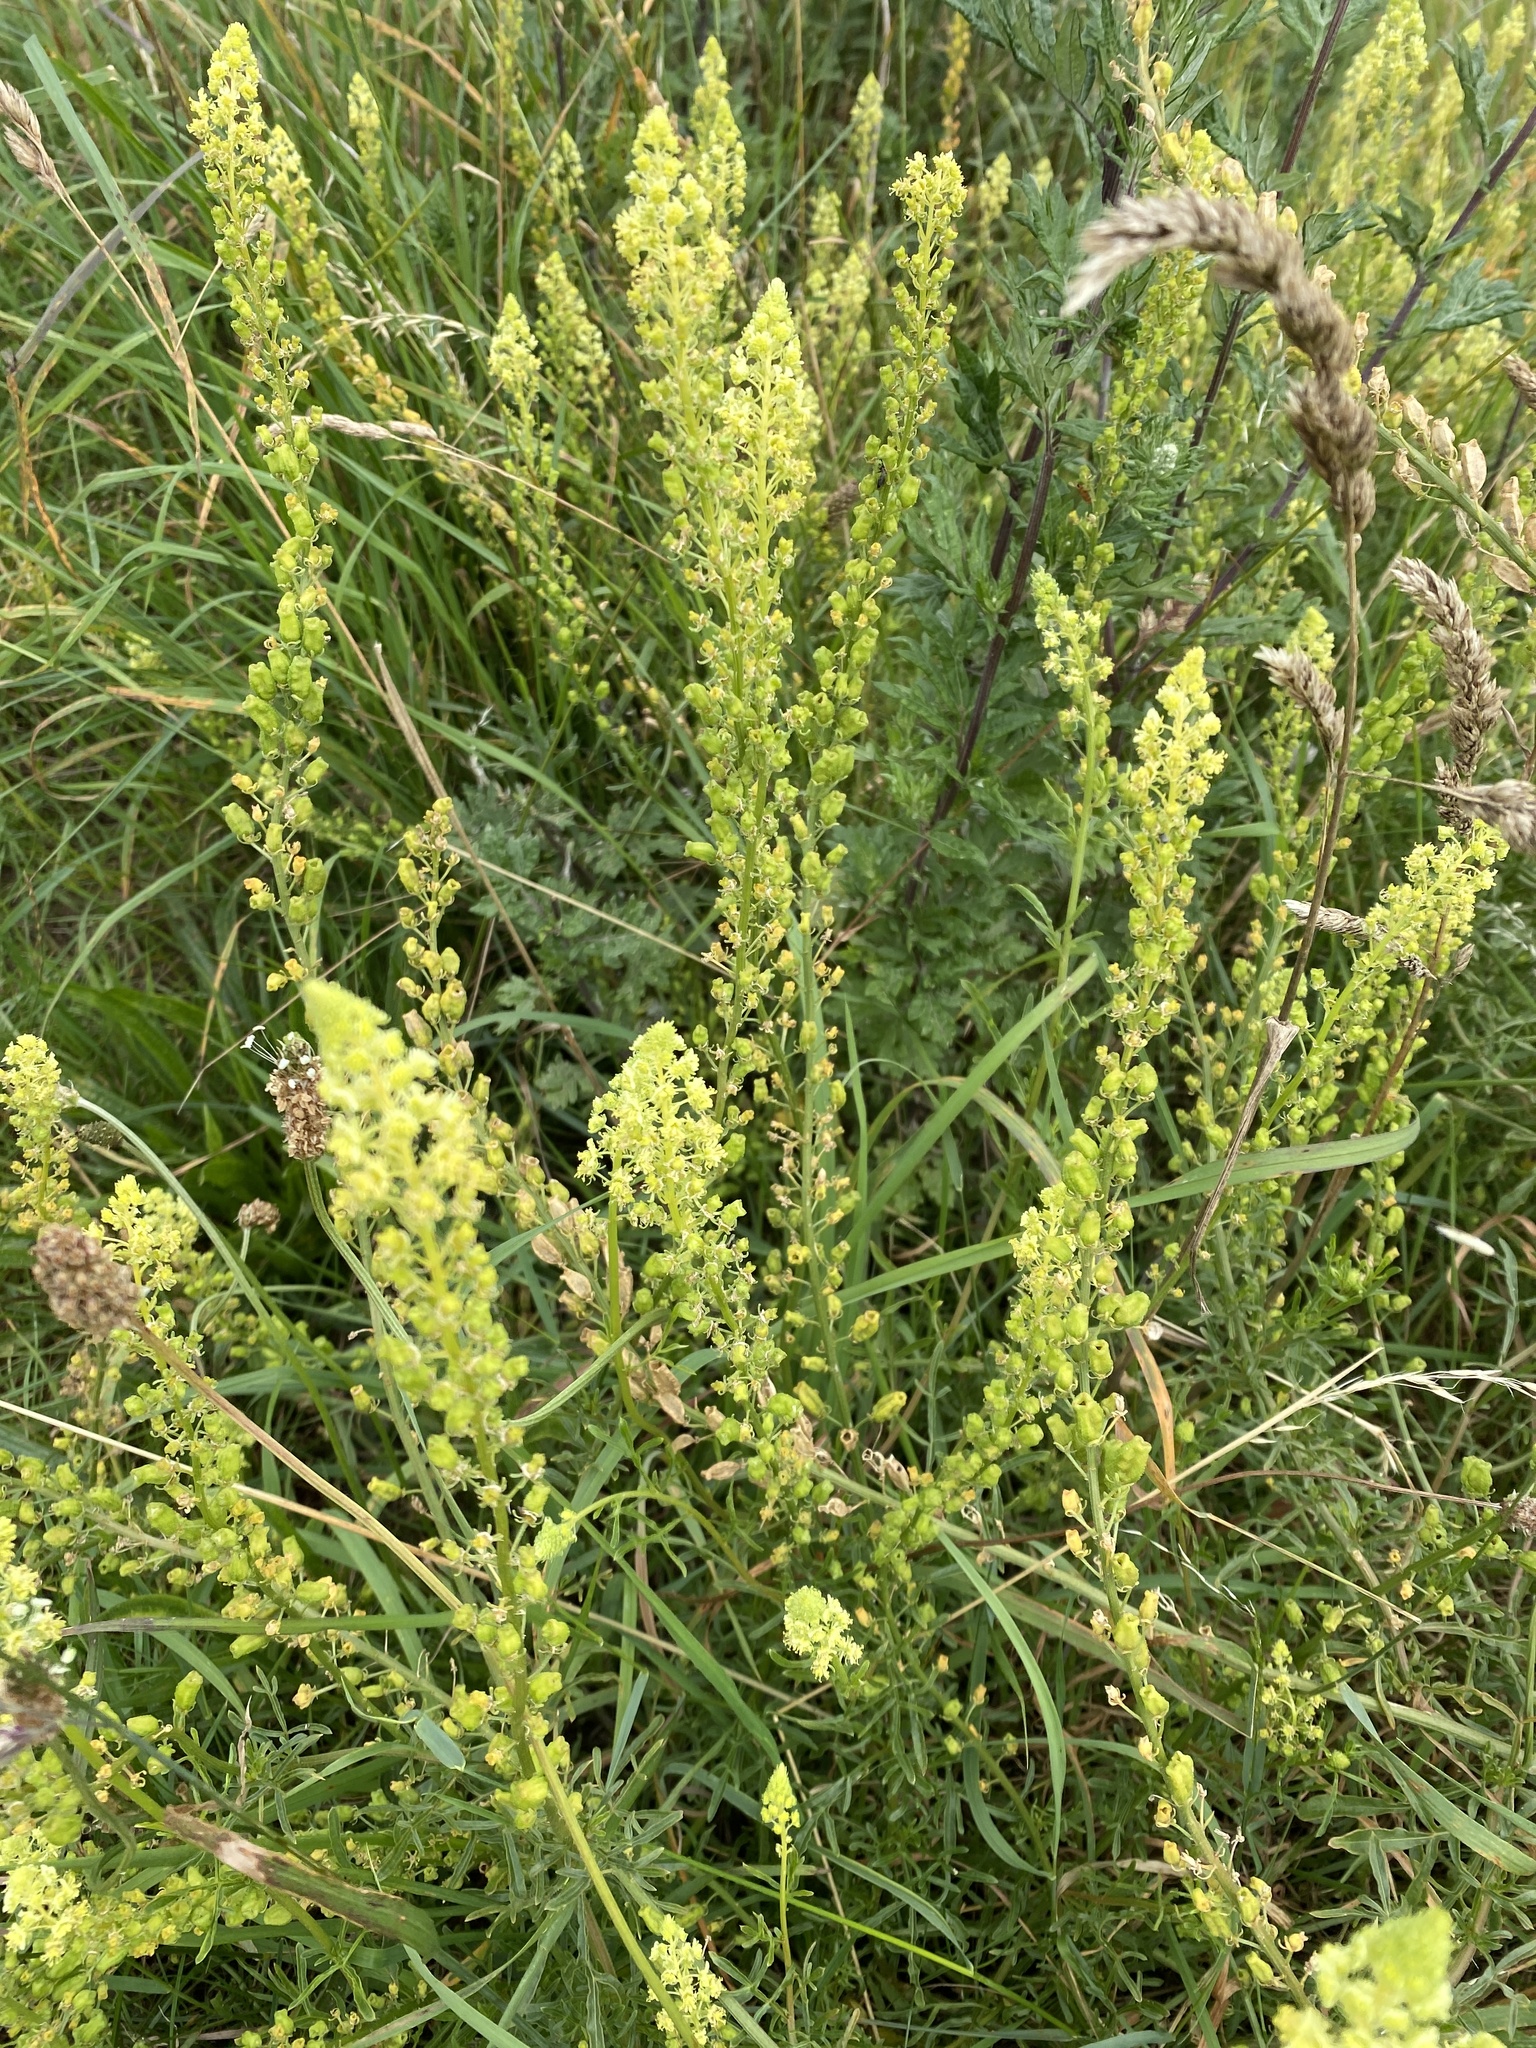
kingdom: Plantae
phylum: Tracheophyta
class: Magnoliopsida
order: Brassicales
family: Resedaceae
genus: Reseda
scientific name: Reseda lutea
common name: Wild mignonette
